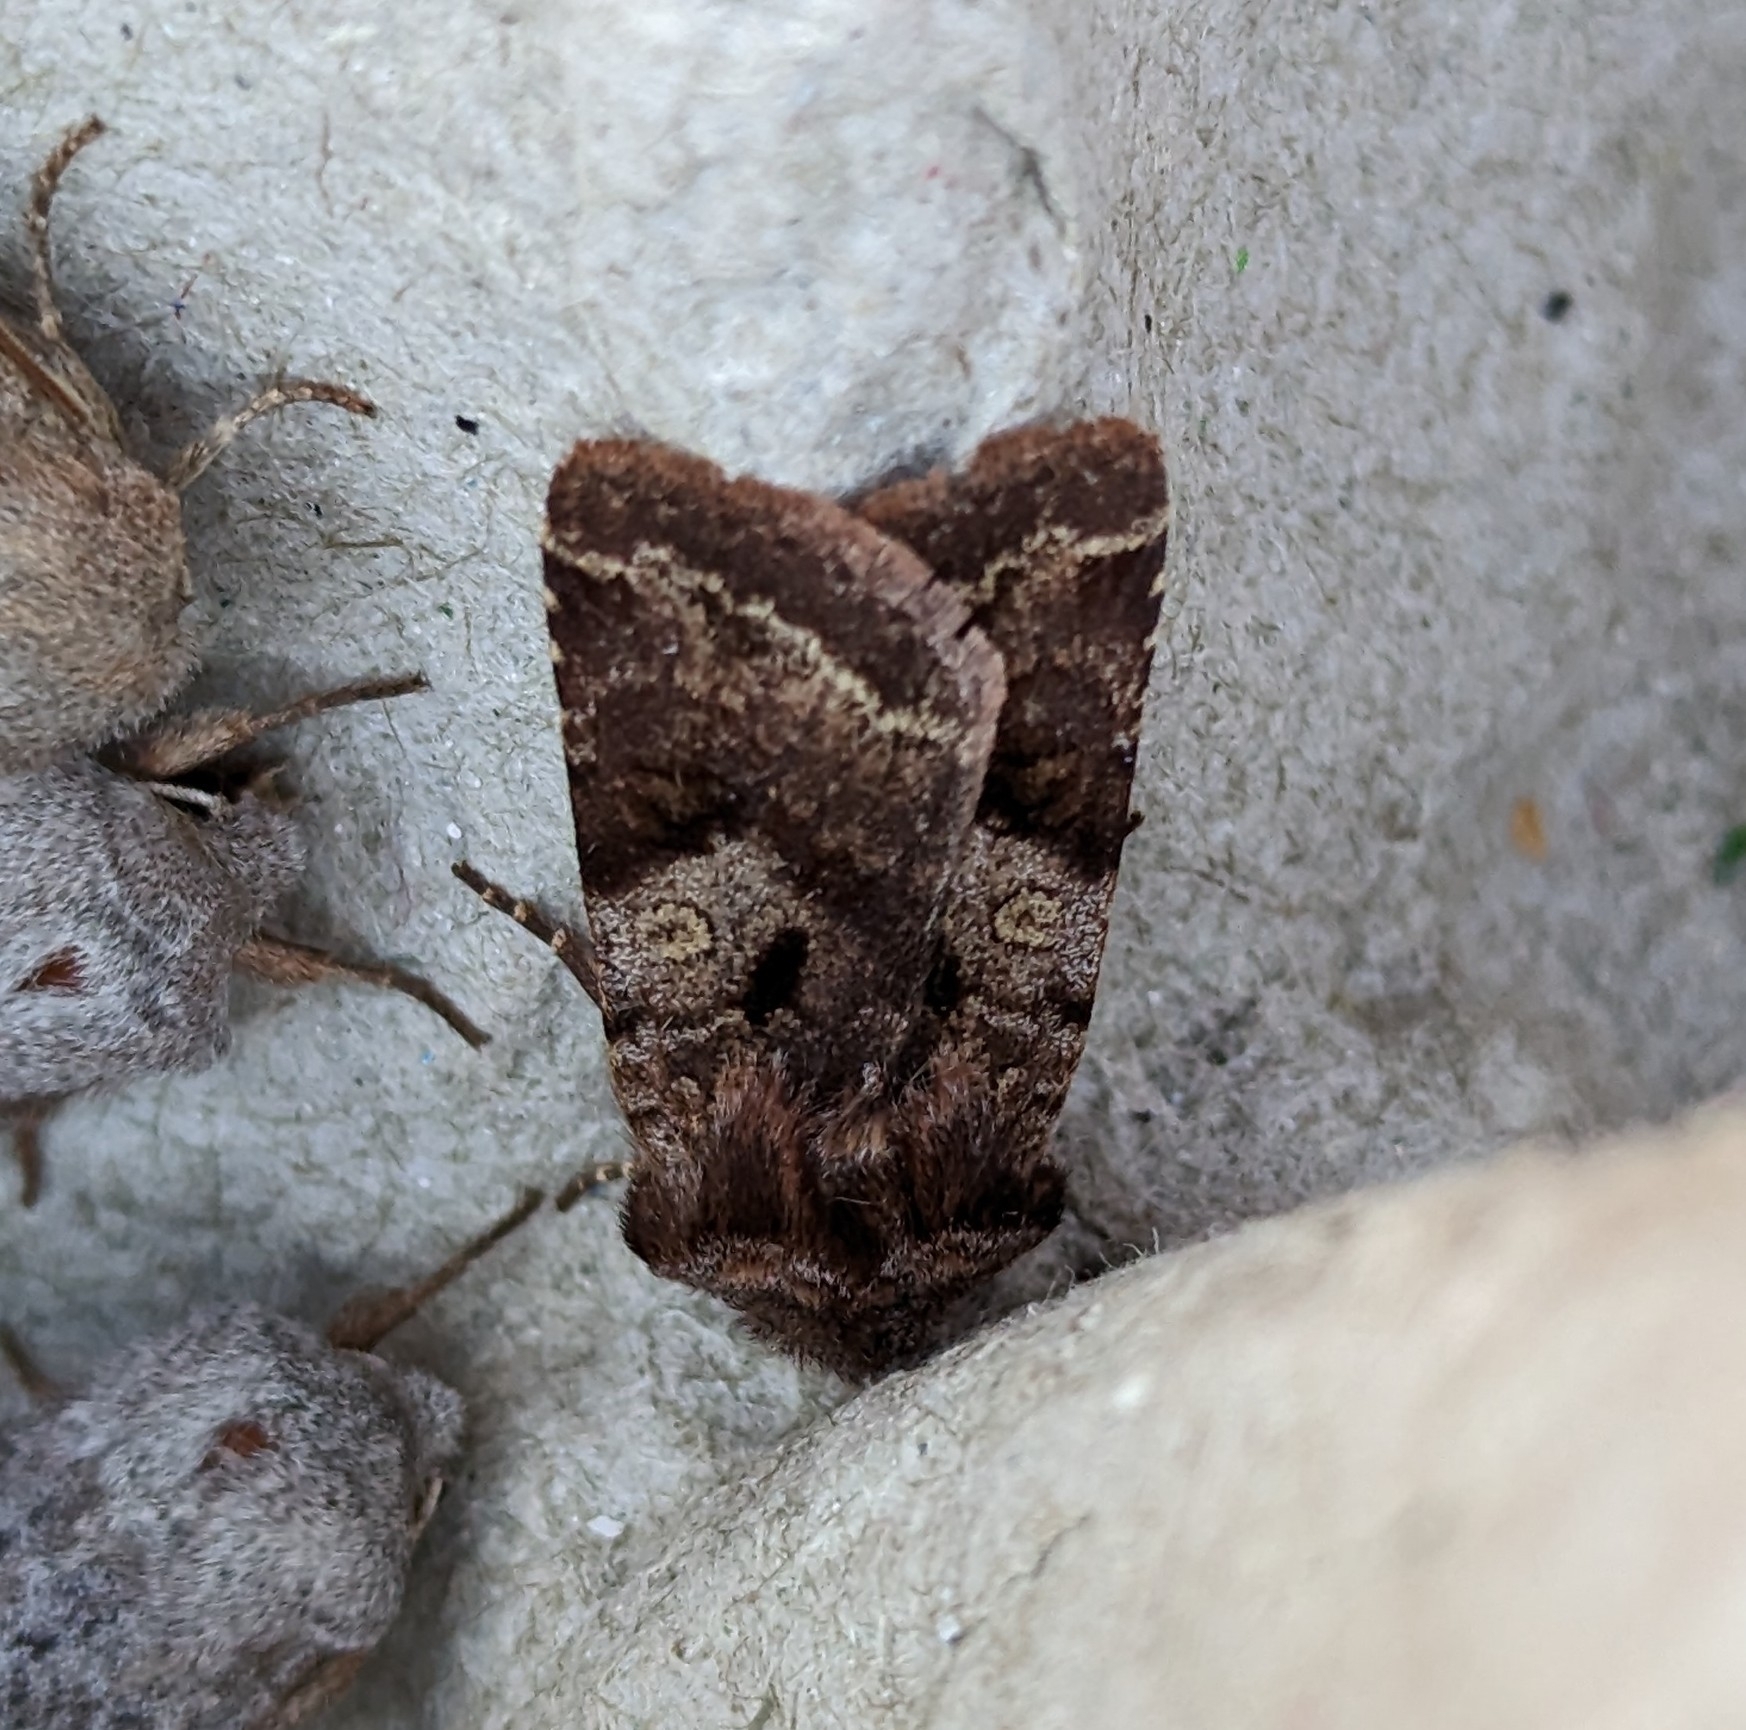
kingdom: Animalia
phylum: Arthropoda
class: Insecta
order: Lepidoptera
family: Noctuidae
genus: Cerastis
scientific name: Cerastis salicarum
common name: Willow dart
